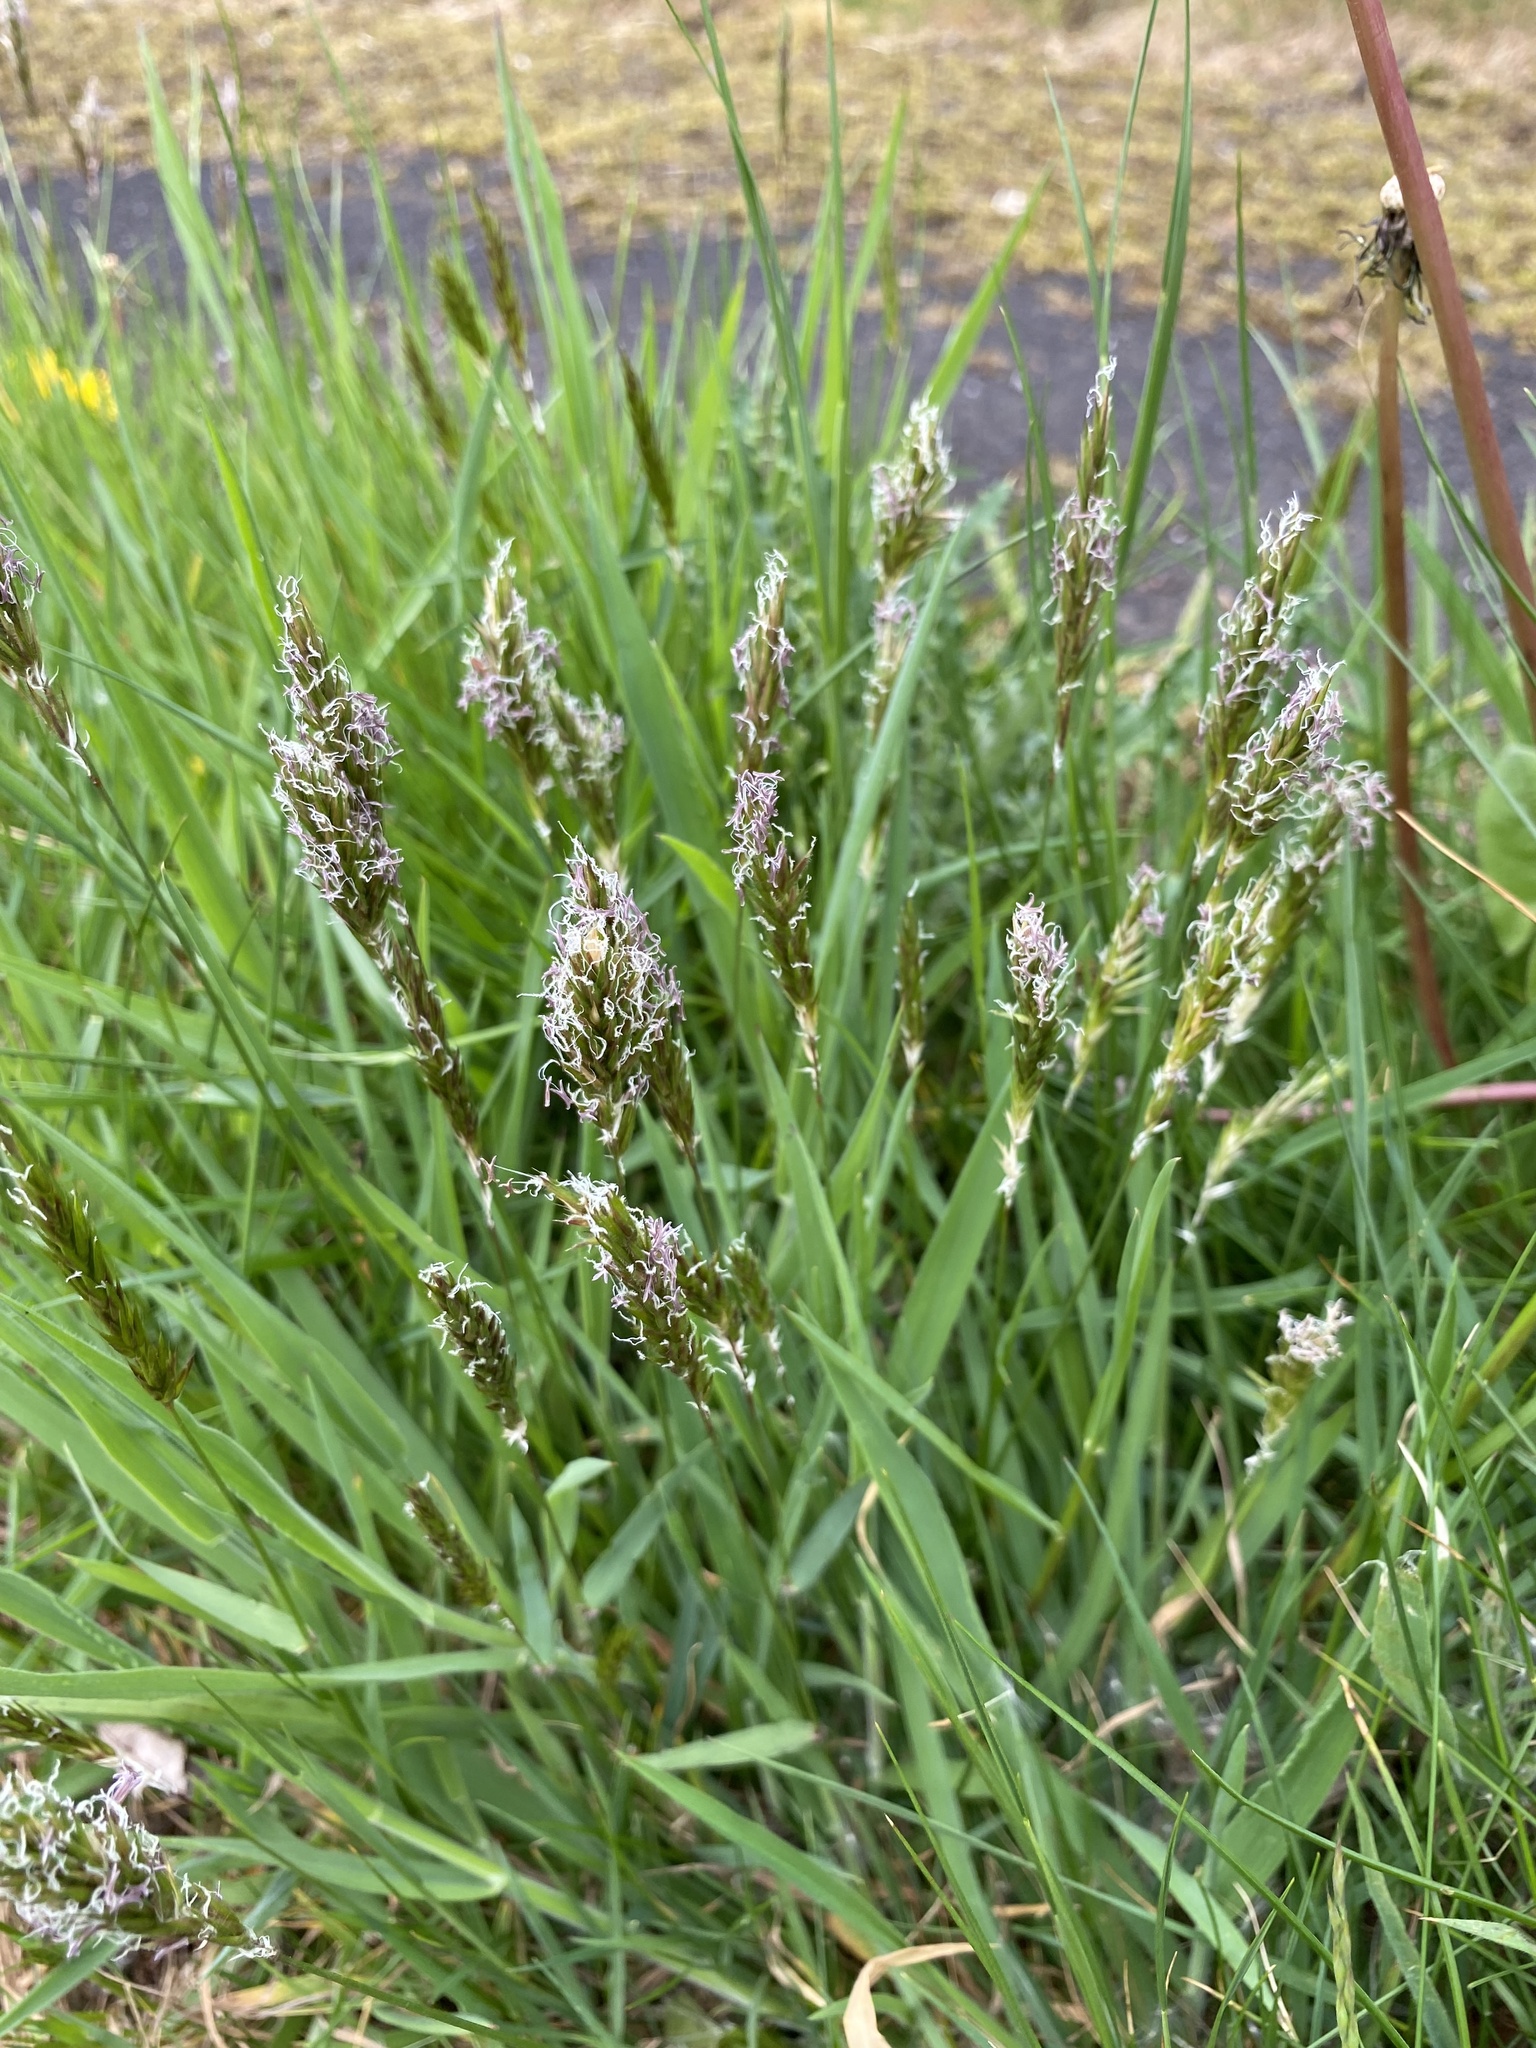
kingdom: Plantae
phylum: Tracheophyta
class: Liliopsida
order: Poales
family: Poaceae
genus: Anthoxanthum
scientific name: Anthoxanthum odoratum
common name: Sweet vernalgrass
